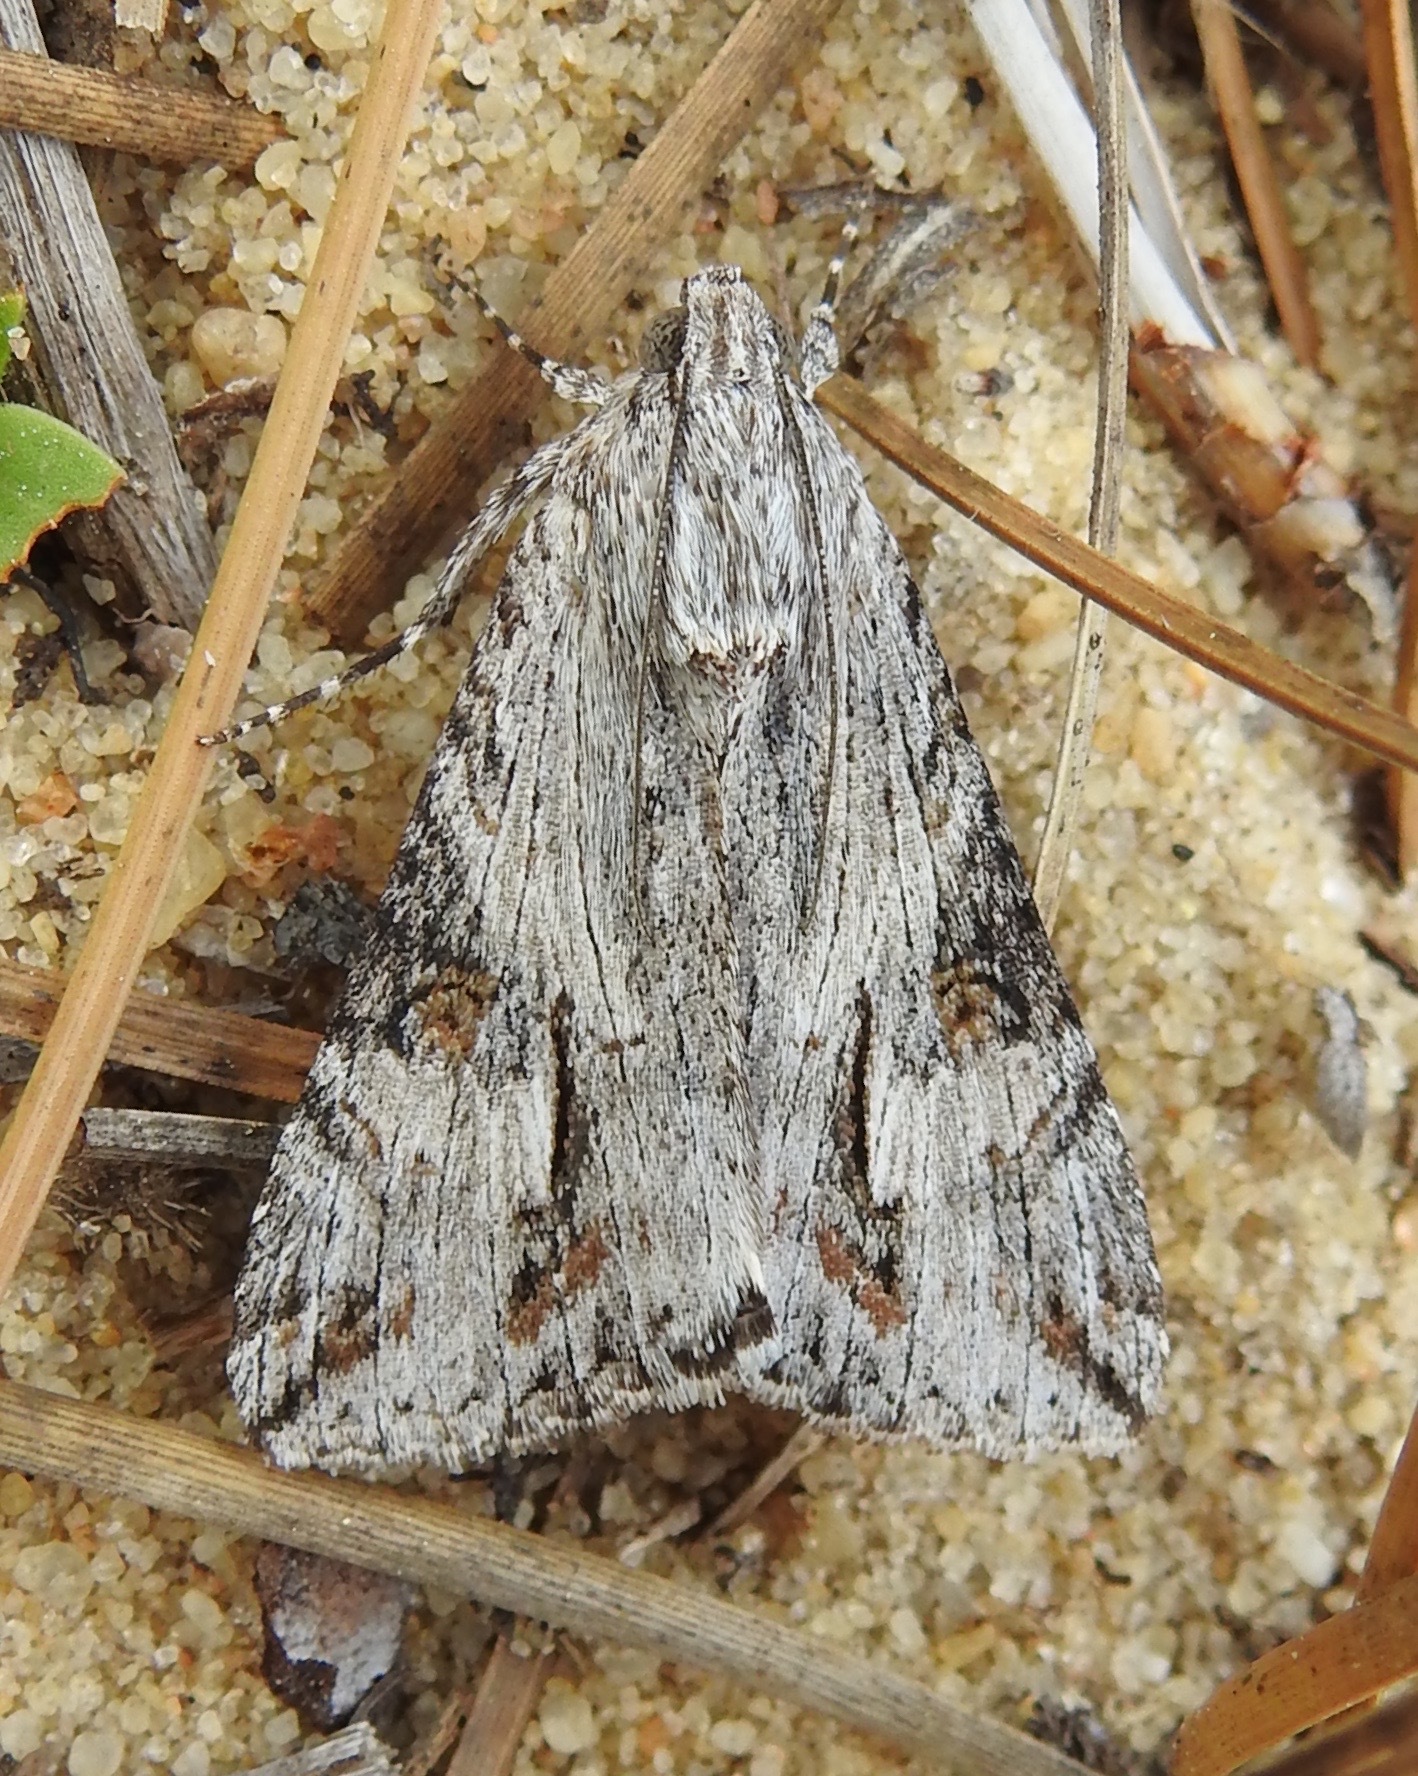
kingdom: Animalia
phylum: Arthropoda
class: Insecta
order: Lepidoptera
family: Erebidae
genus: Melipotis
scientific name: Melipotis jucunda
